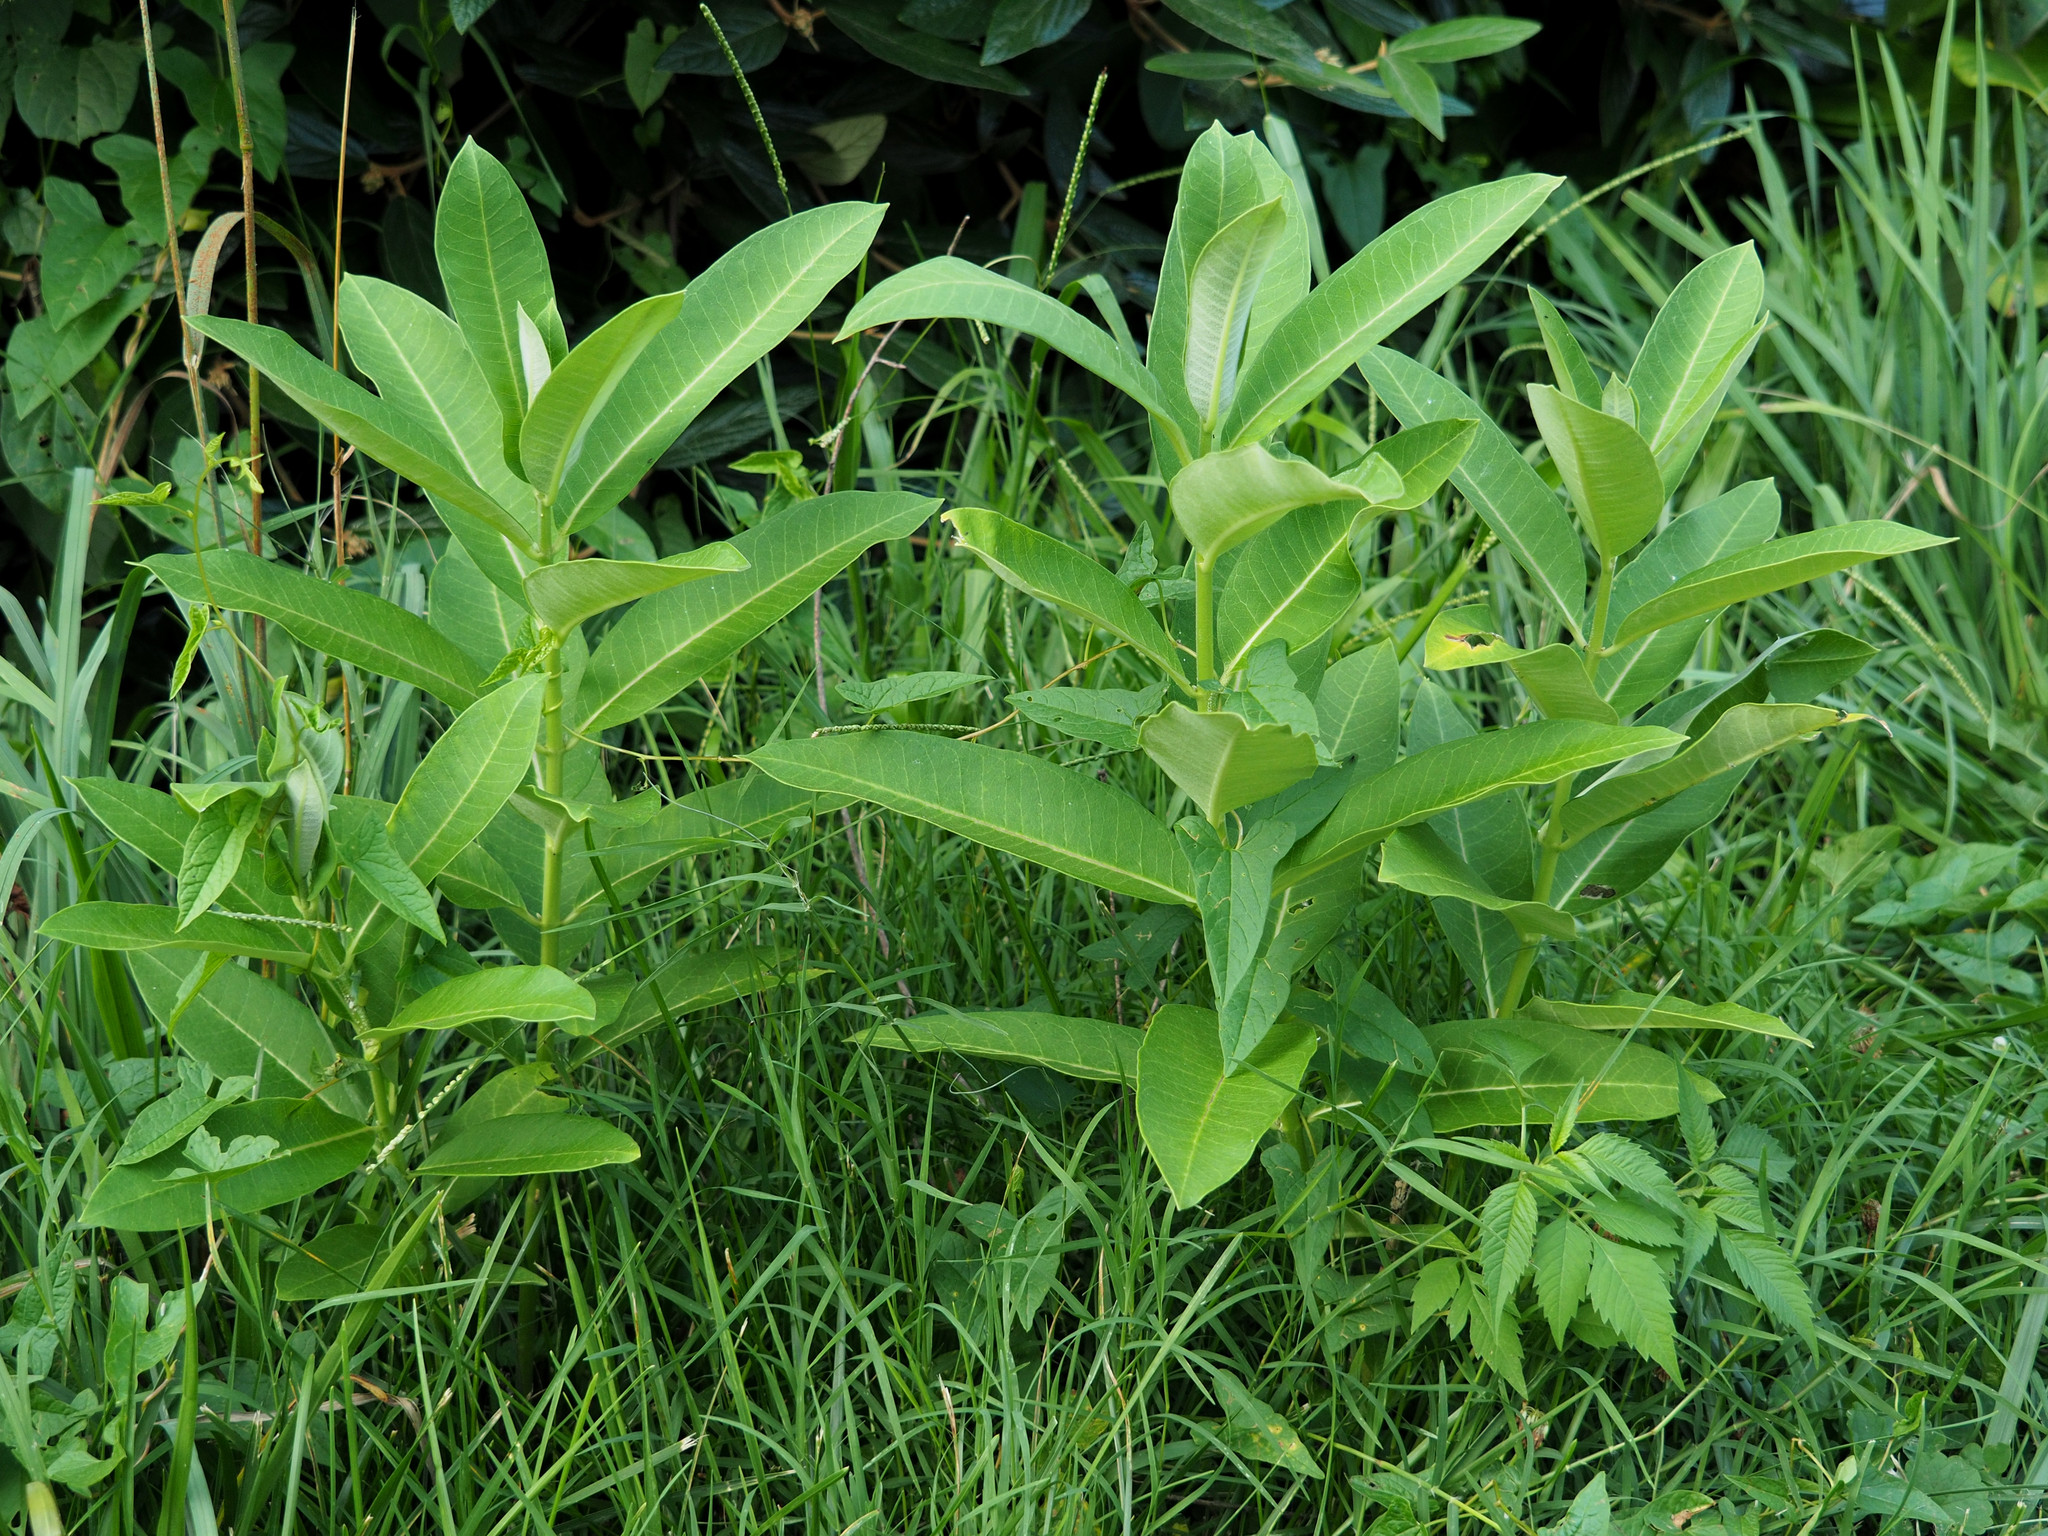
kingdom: Plantae
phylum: Tracheophyta
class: Magnoliopsida
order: Gentianales
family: Apocynaceae
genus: Asclepias
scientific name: Asclepias syriaca
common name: Common milkweed
